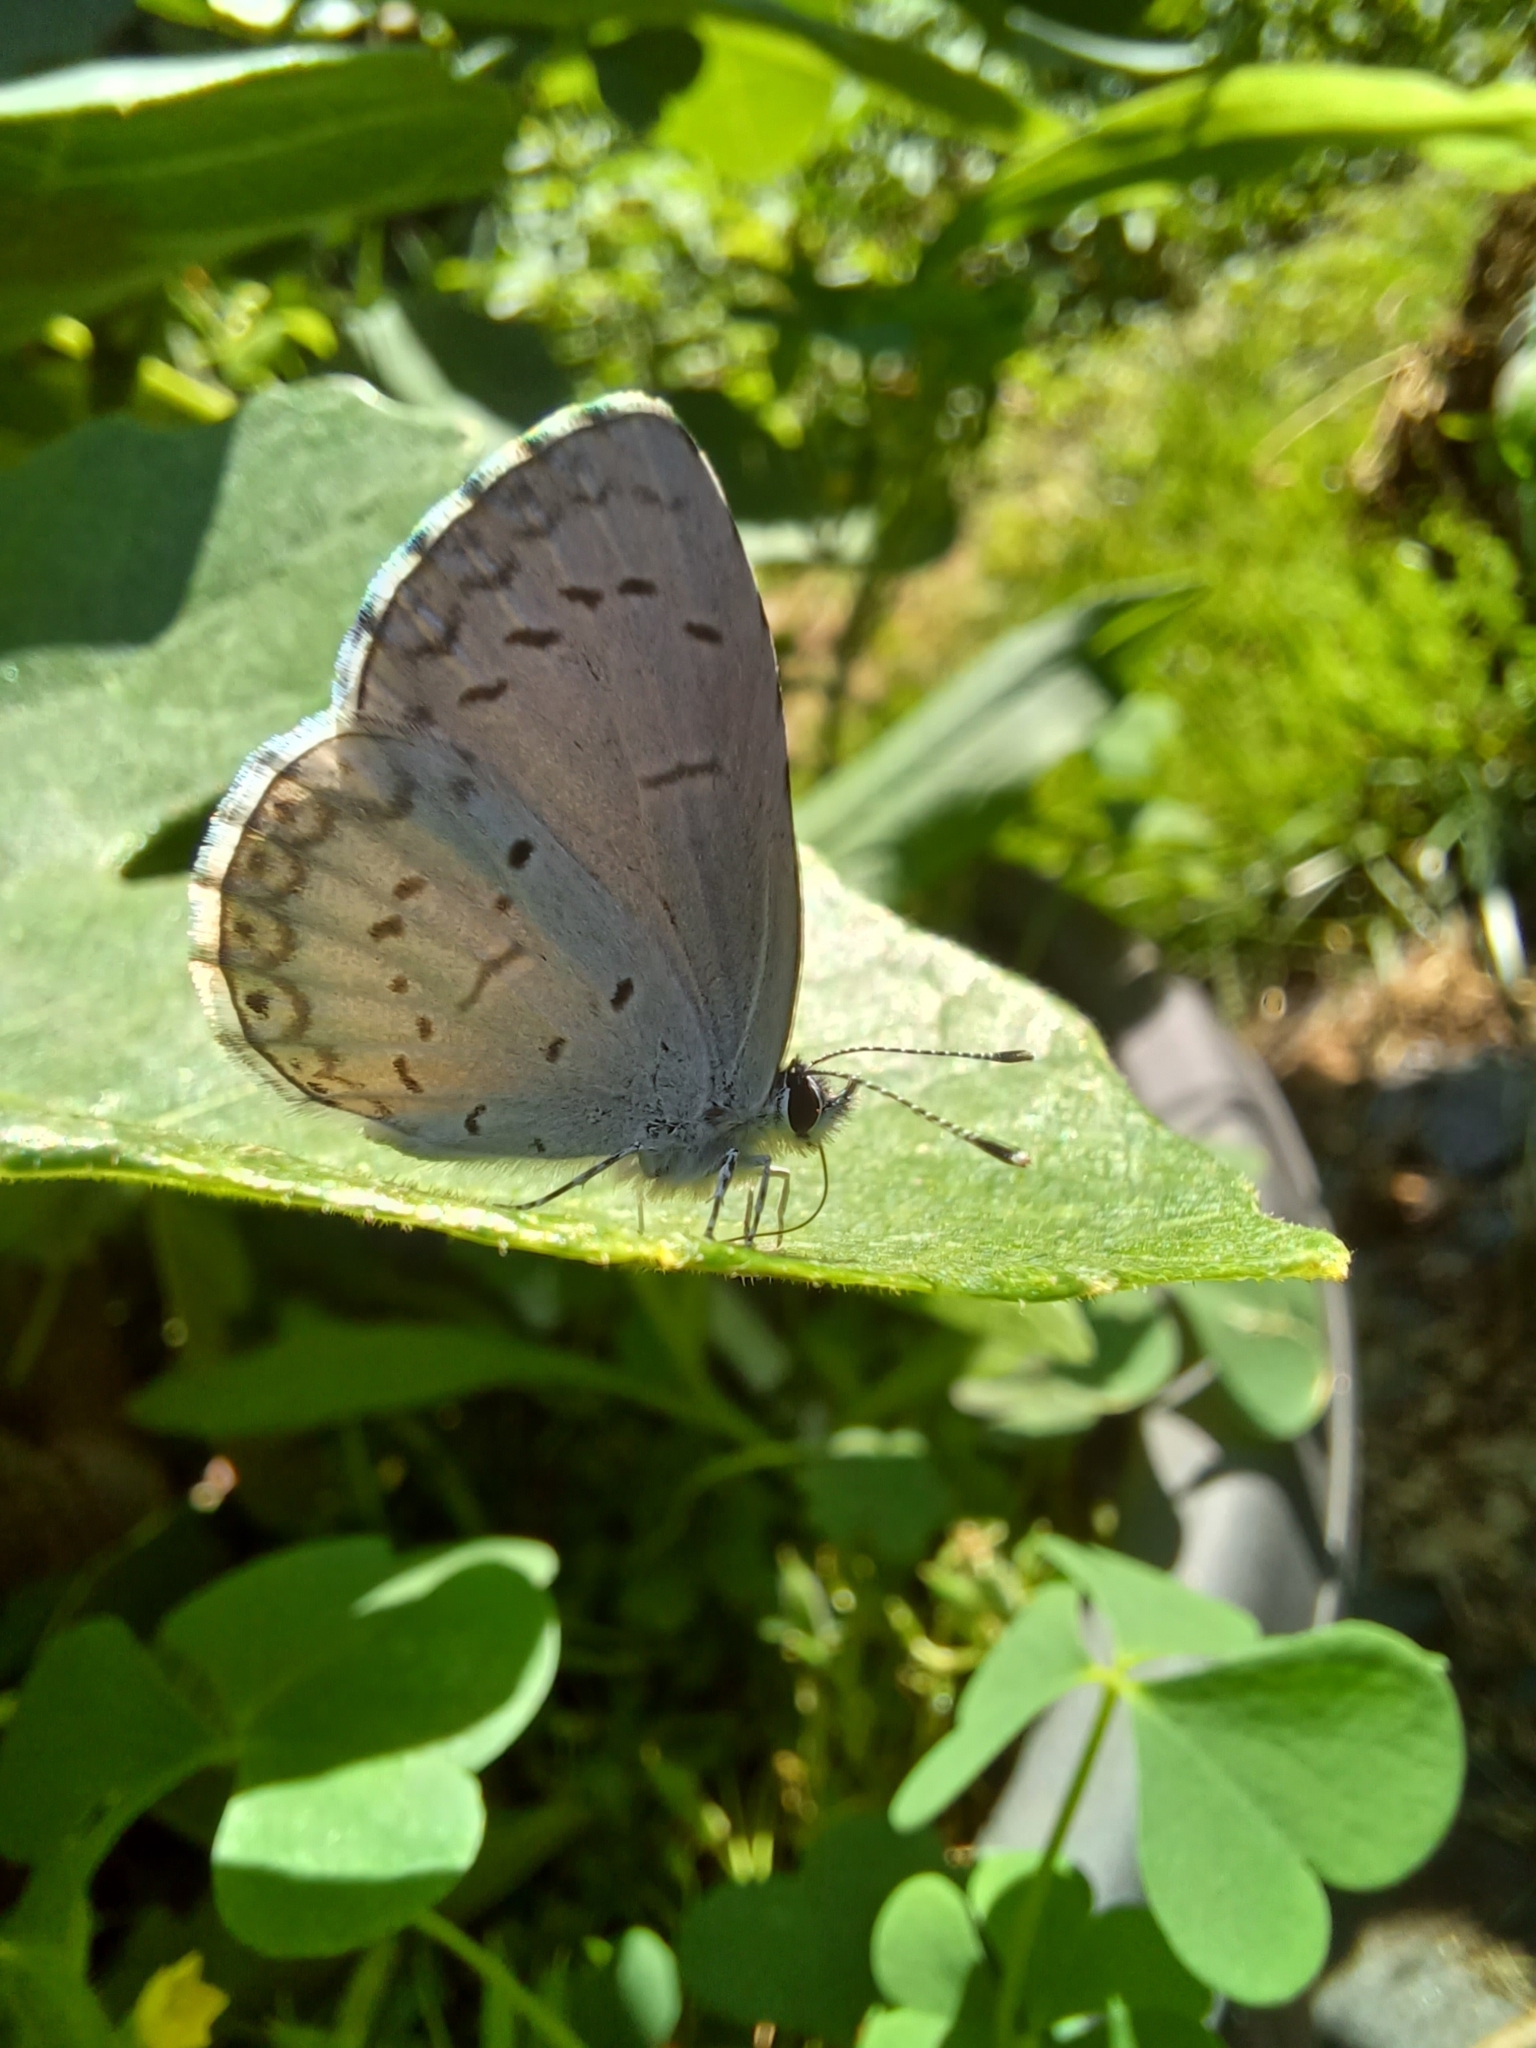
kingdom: Animalia
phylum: Arthropoda
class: Insecta
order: Lepidoptera
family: Lycaenidae
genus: Celastrina
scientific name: Celastrina lucia
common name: Lucia azure
